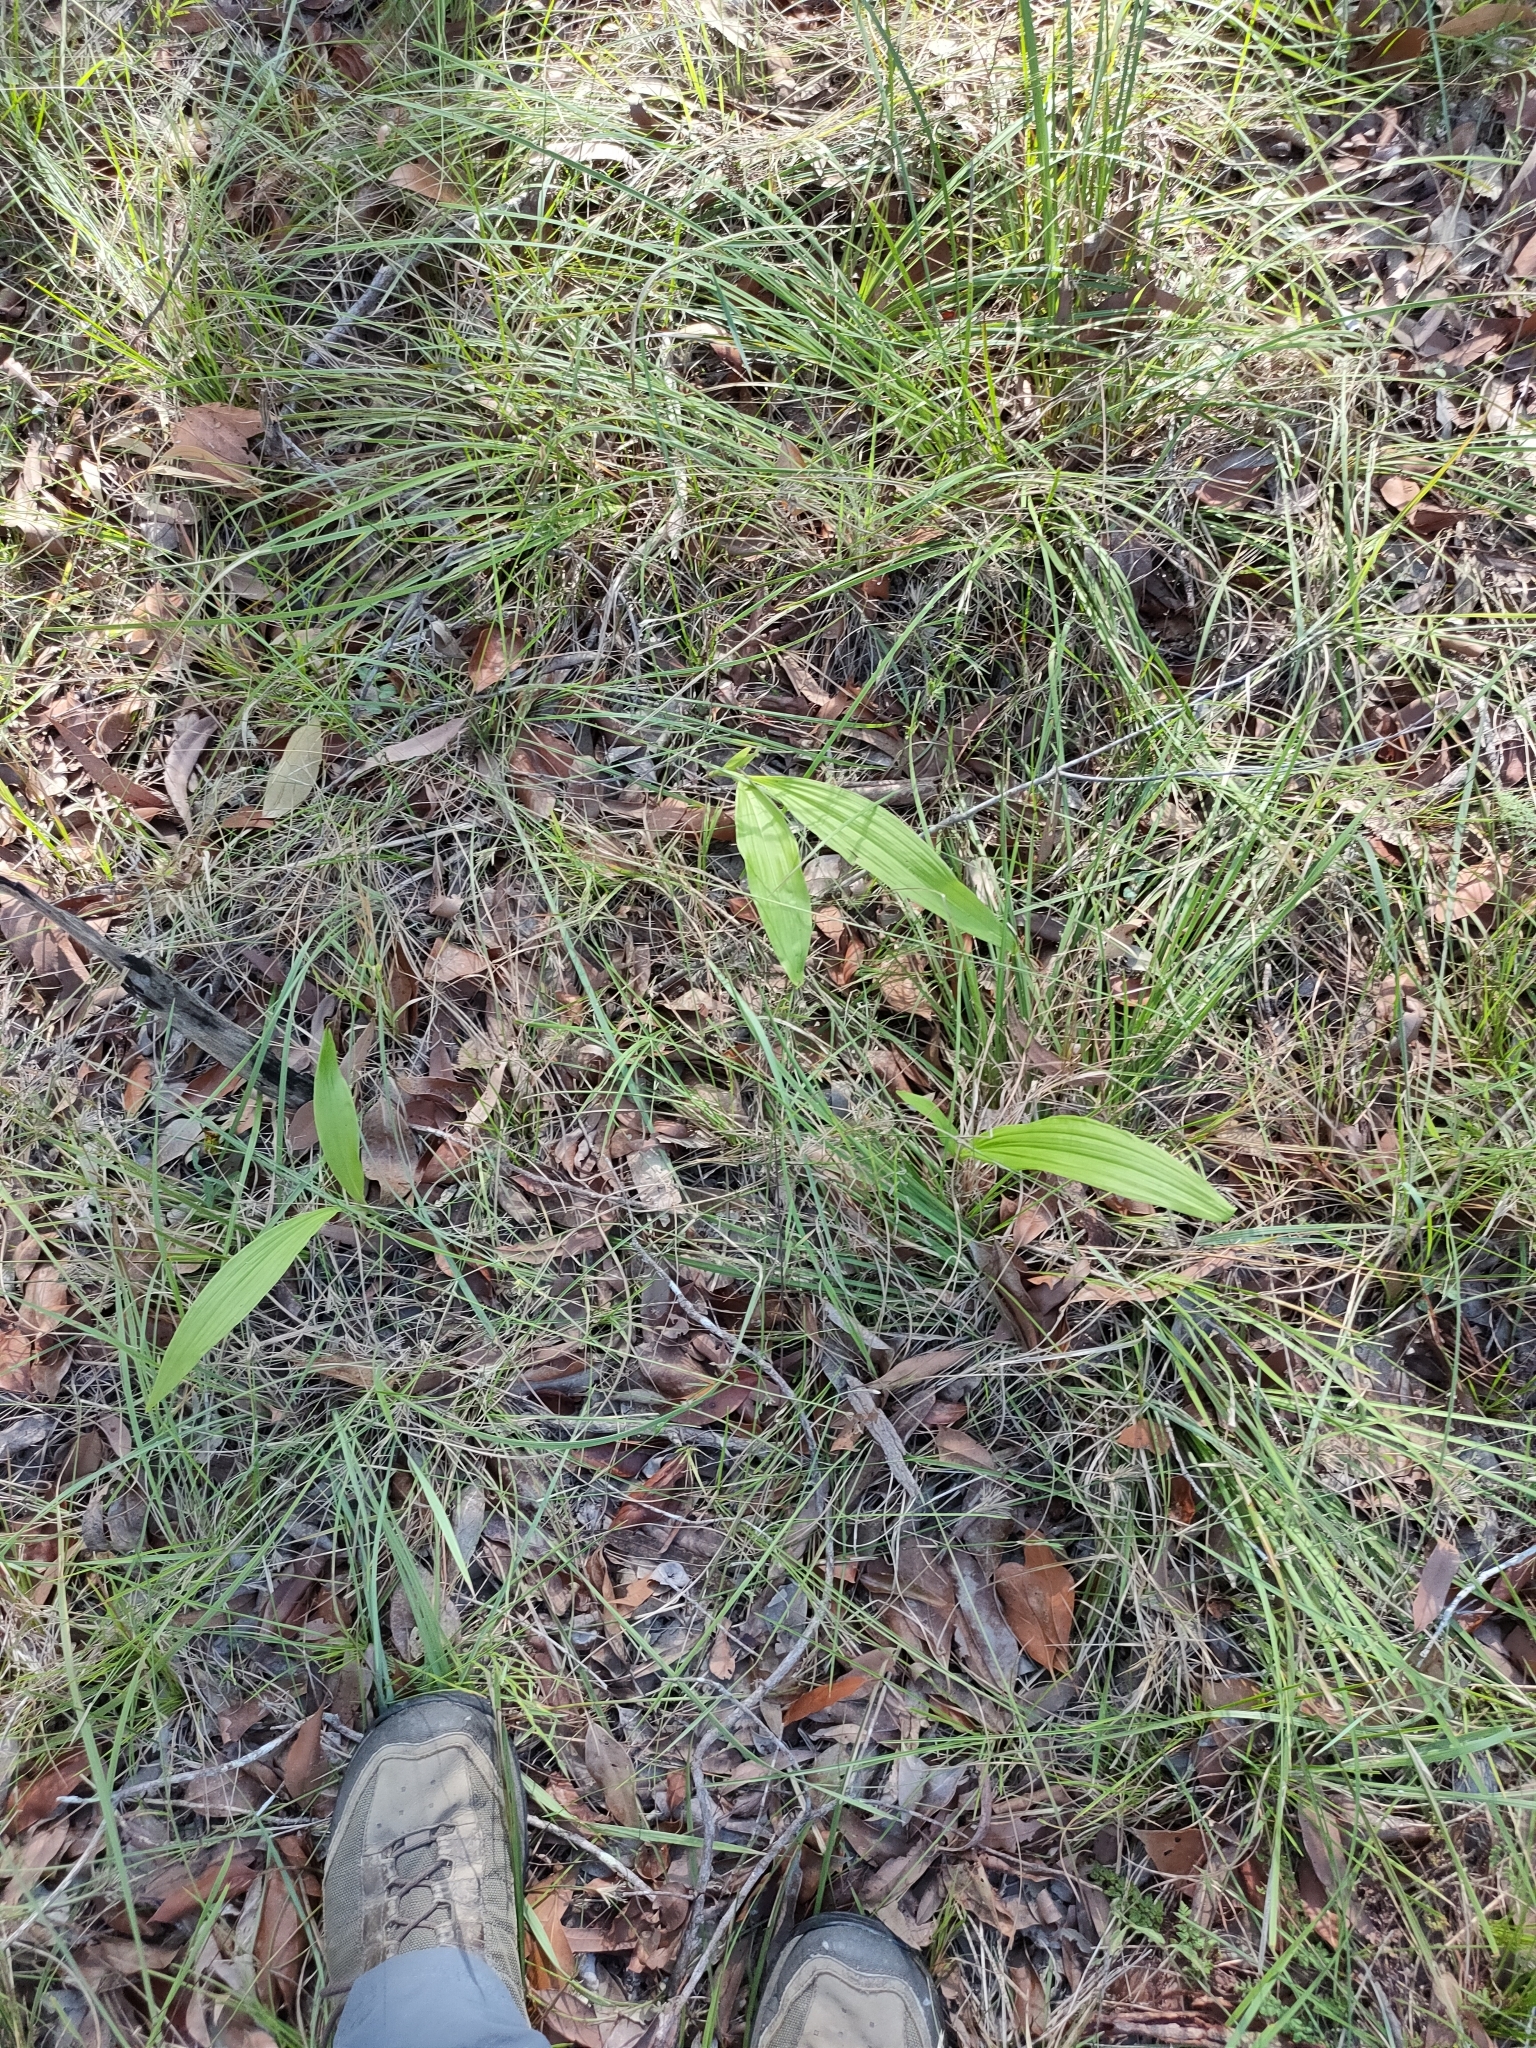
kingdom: Plantae
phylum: Tracheophyta
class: Liliopsida
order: Asparagales
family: Orchidaceae
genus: Eulophia
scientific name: Eulophia cernua
